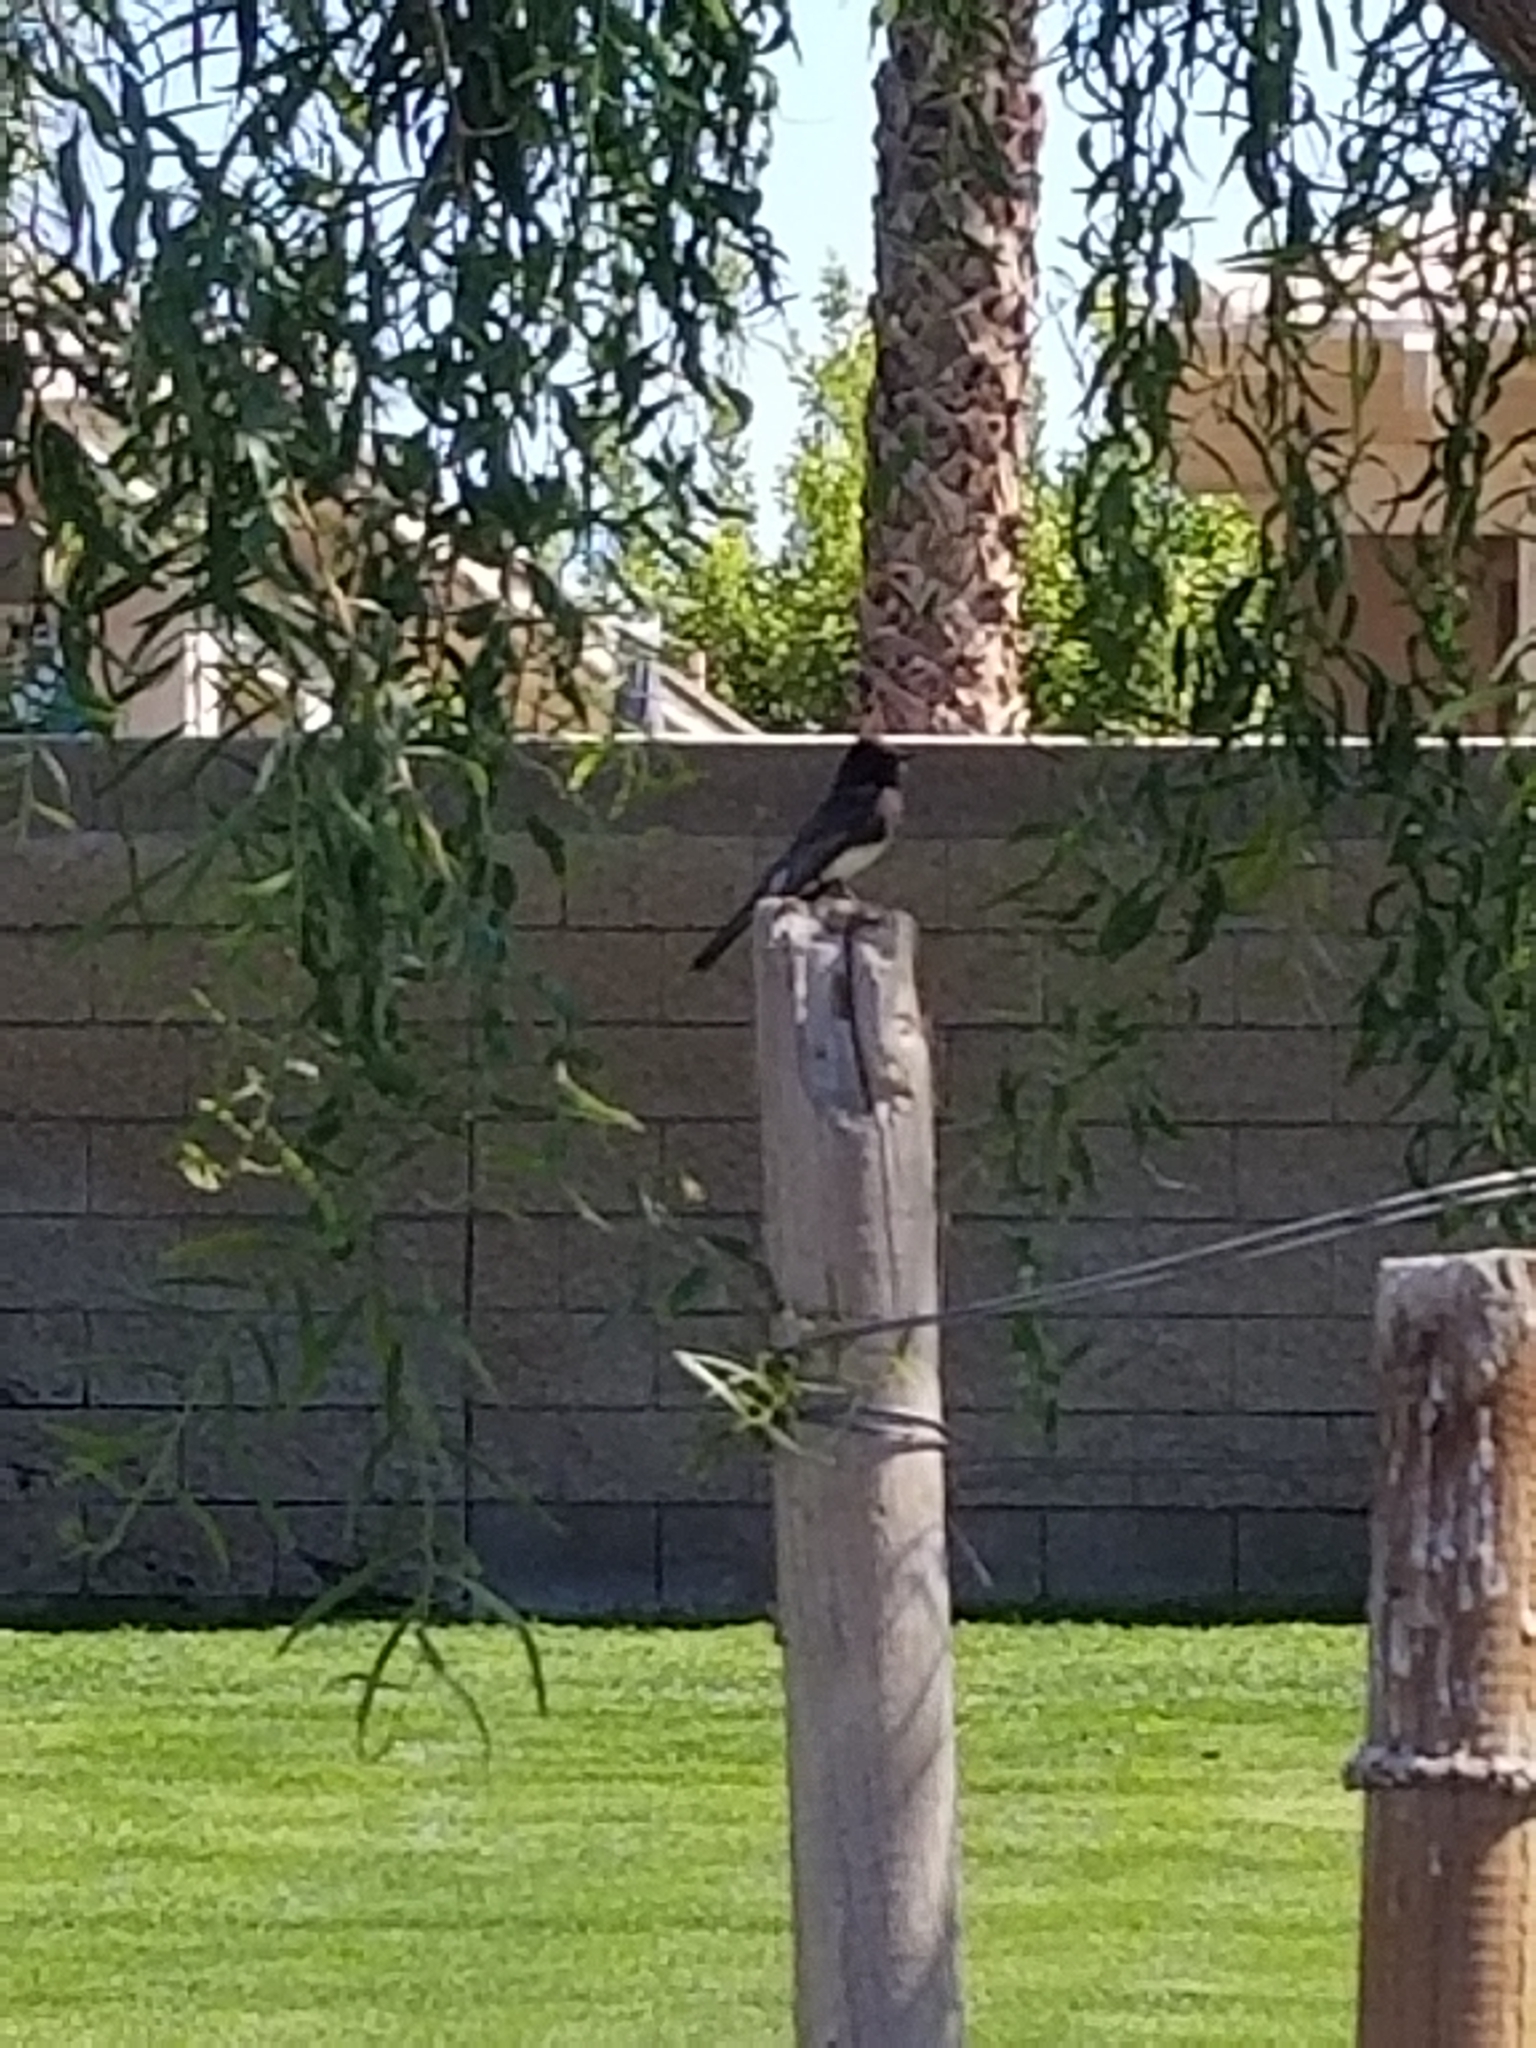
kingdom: Animalia
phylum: Chordata
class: Aves
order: Passeriformes
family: Tyrannidae
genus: Sayornis
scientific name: Sayornis nigricans
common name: Black phoebe
